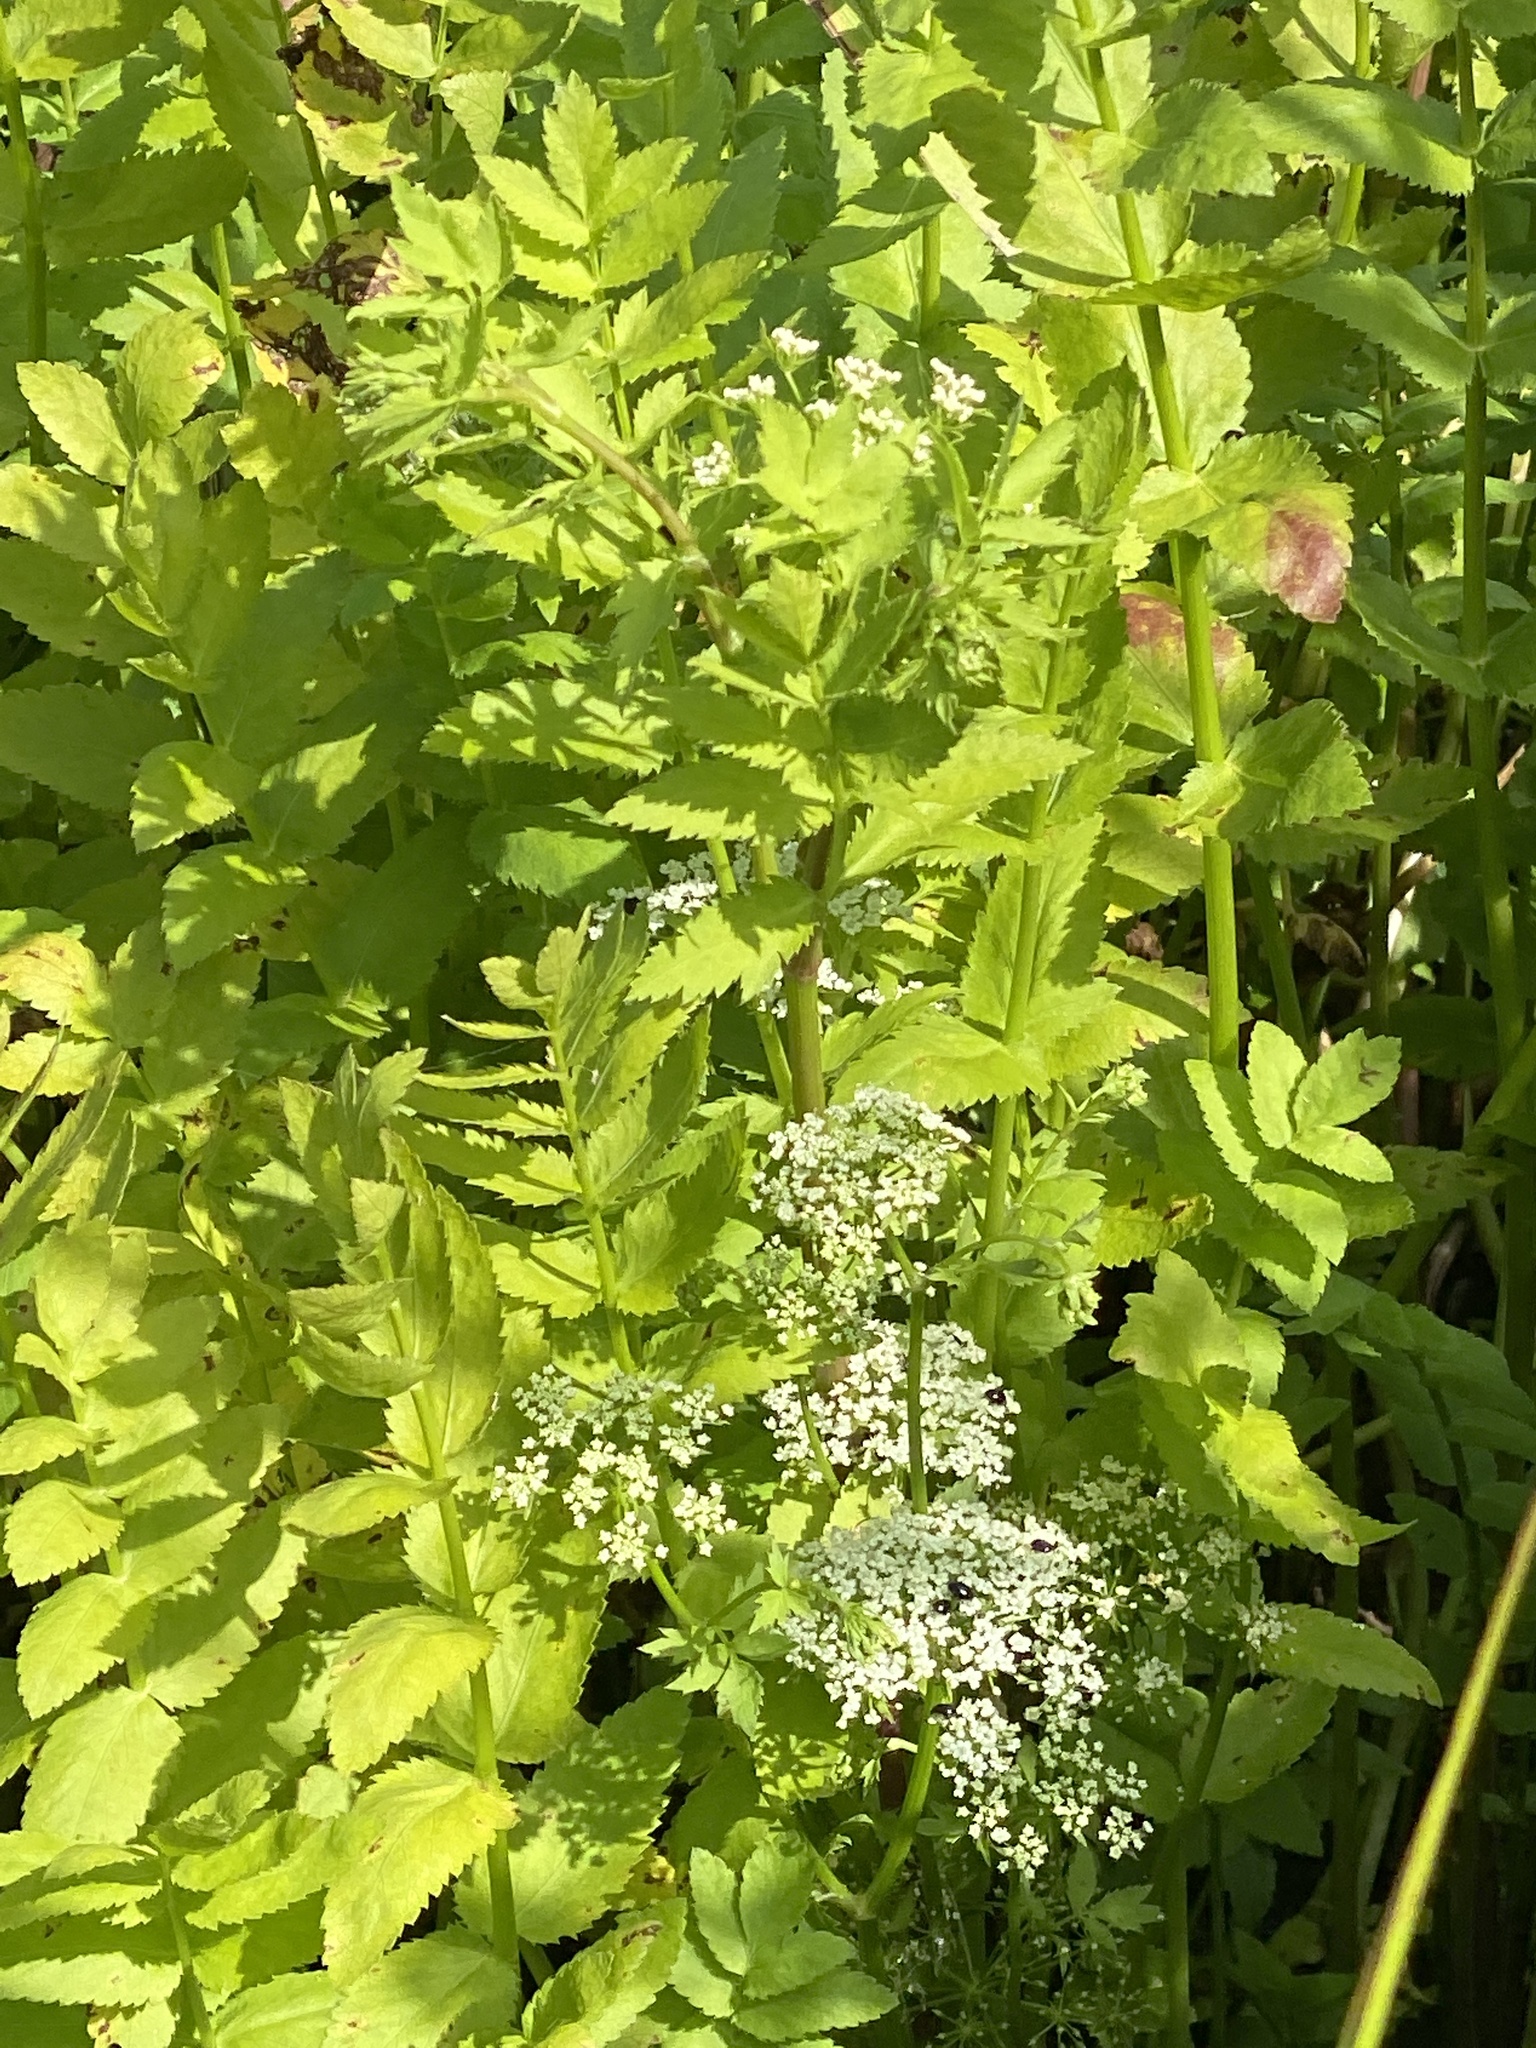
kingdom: Plantae
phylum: Tracheophyta
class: Magnoliopsida
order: Apiales
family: Apiaceae
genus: Berula
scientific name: Berula erecta
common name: Lesser water-parsnip
